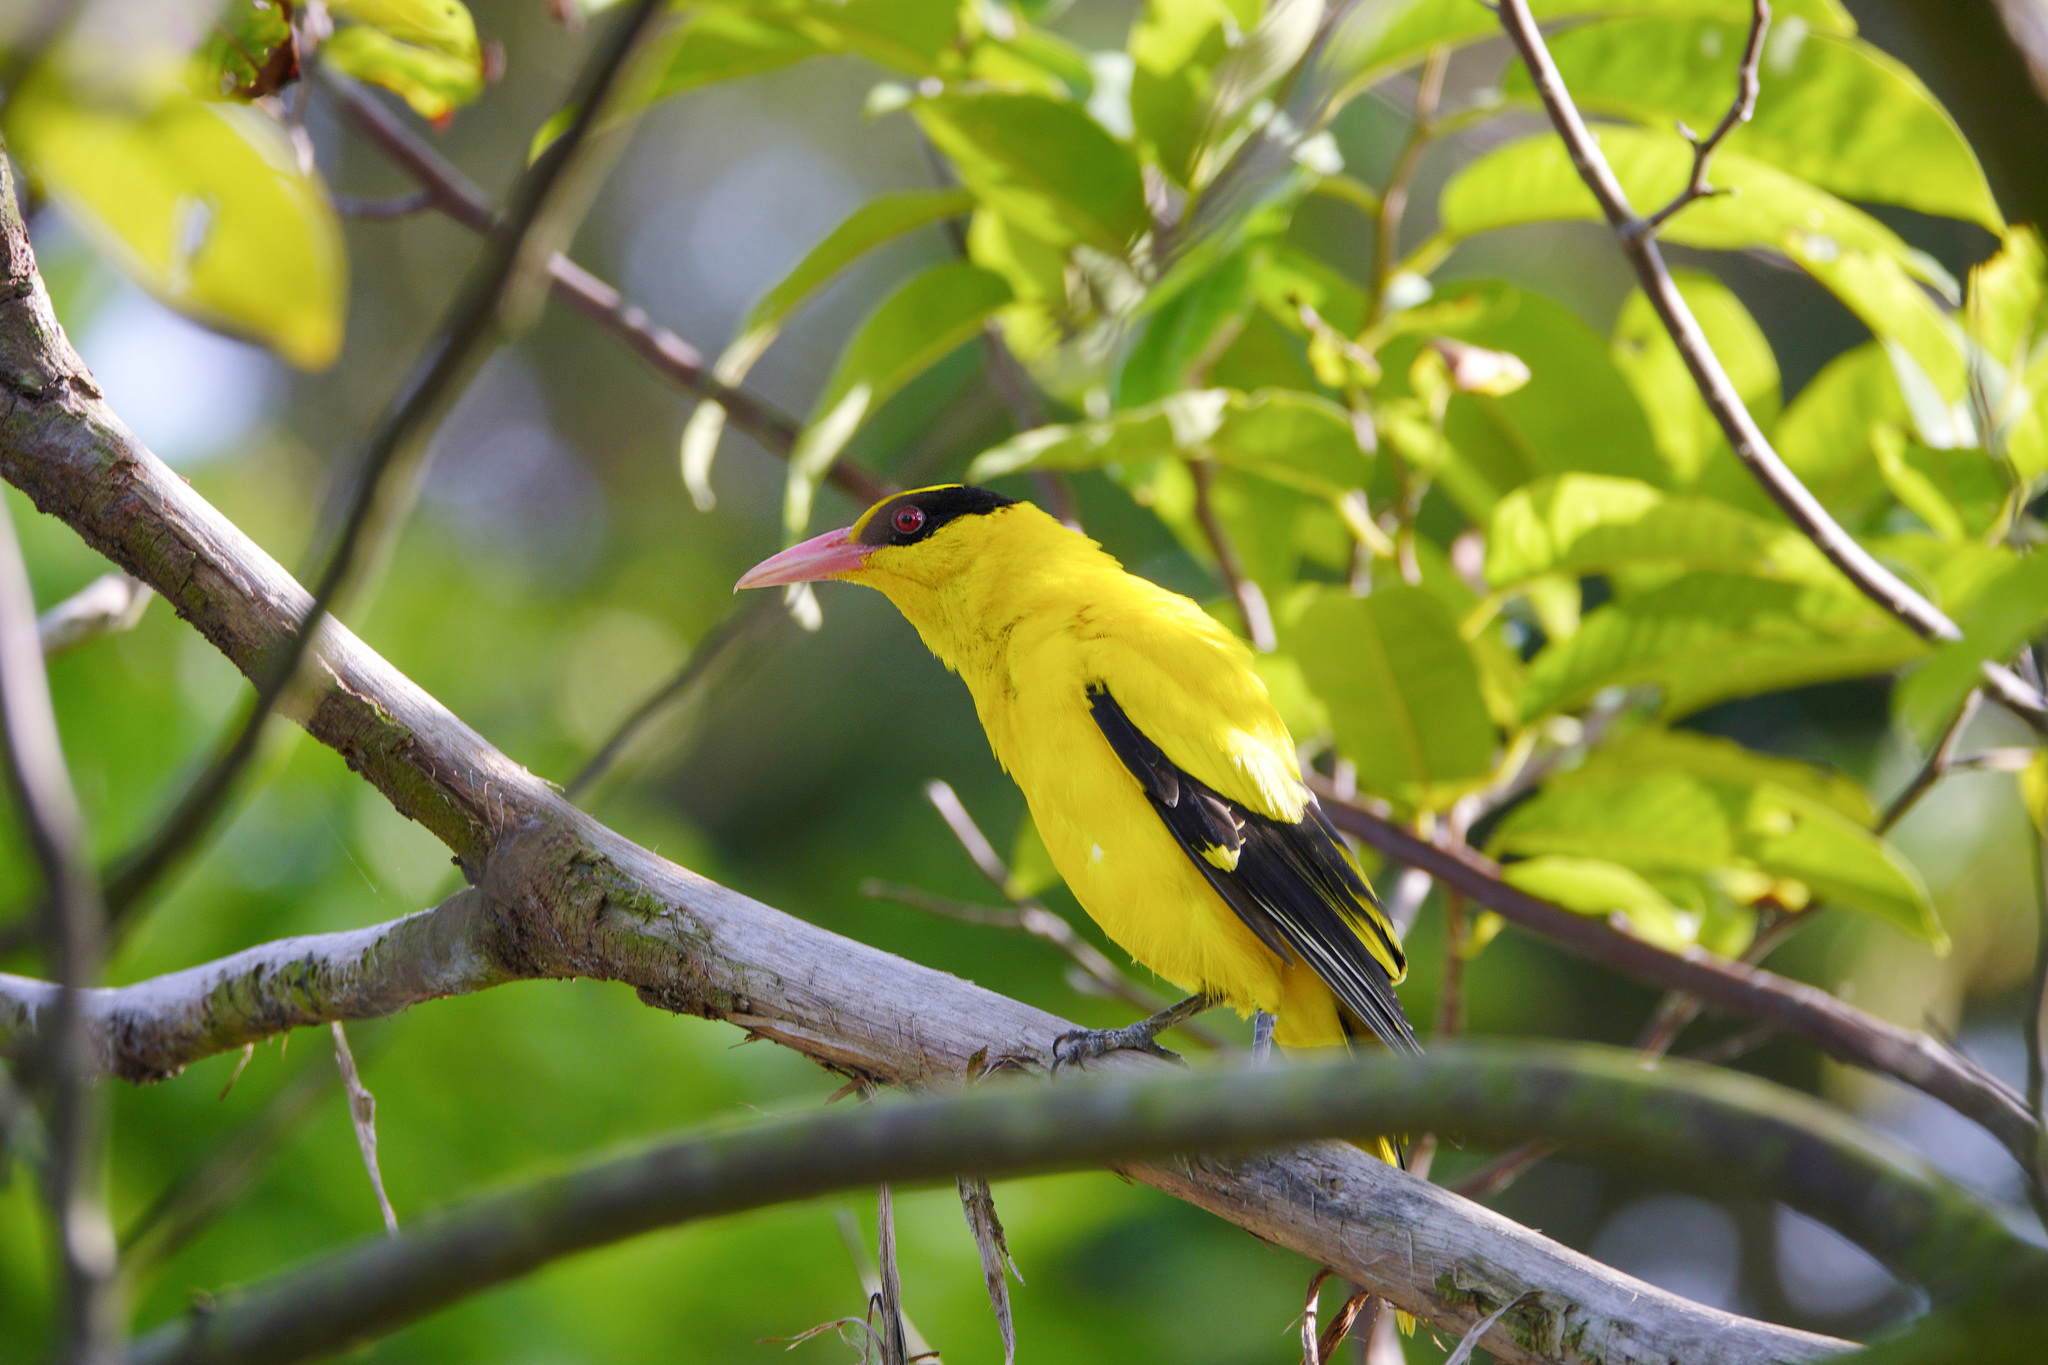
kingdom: Animalia
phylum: Chordata
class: Aves
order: Passeriformes
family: Oriolidae
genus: Oriolus
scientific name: Oriolus chinensis
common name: Black-naped oriole
